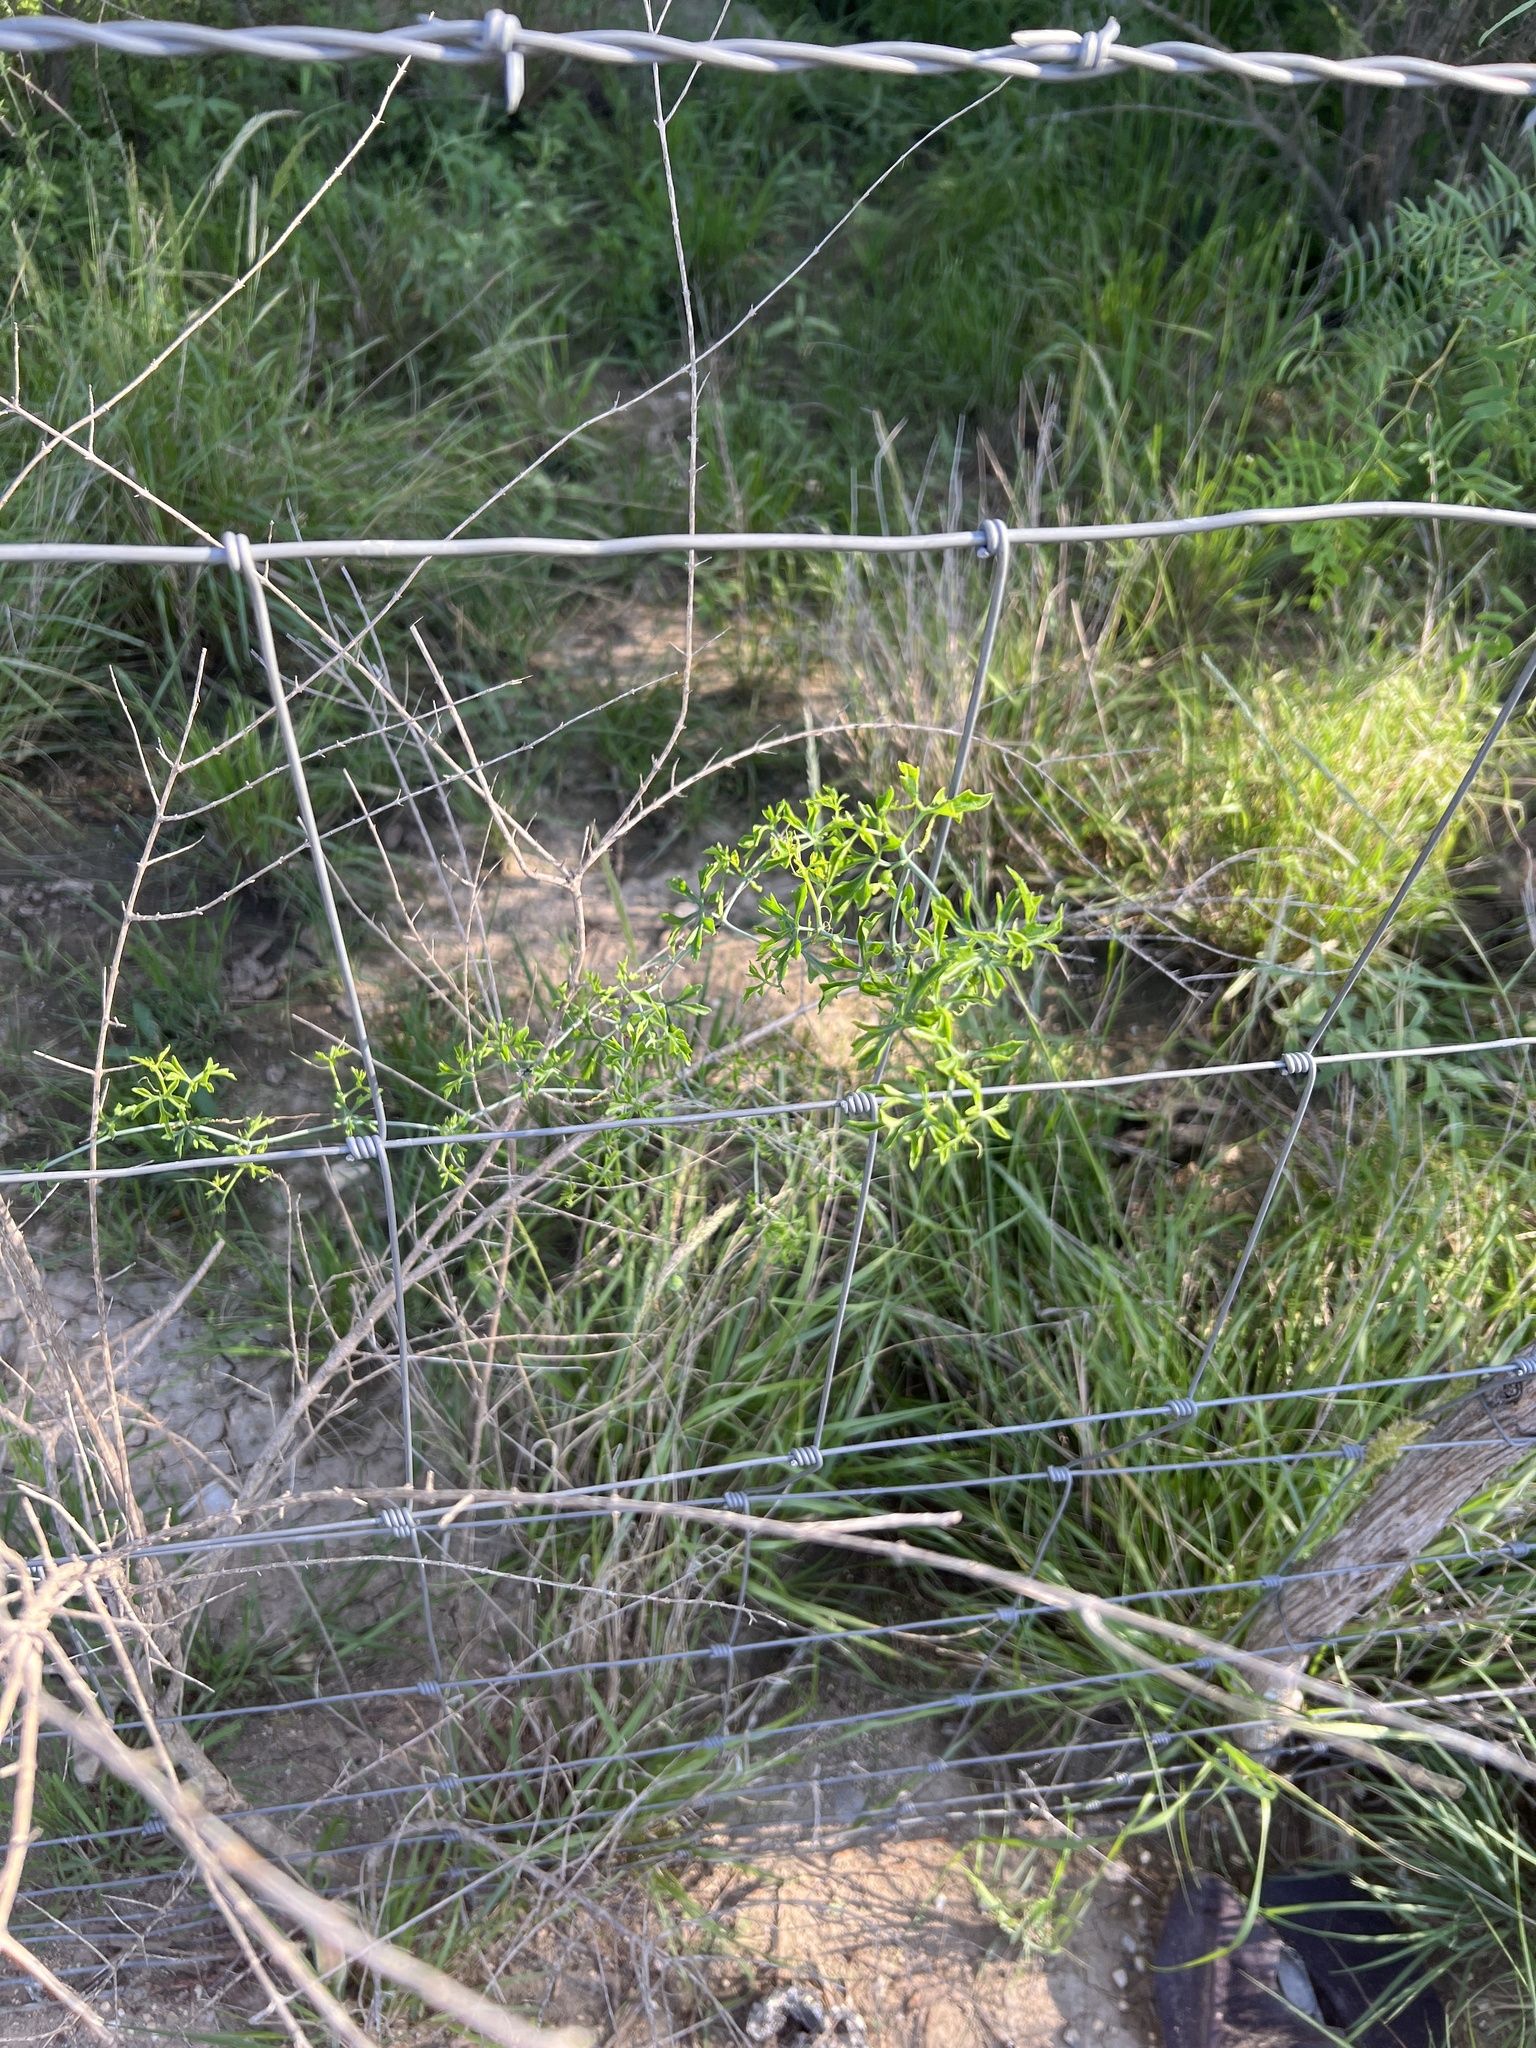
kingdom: Plantae
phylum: Tracheophyta
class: Magnoliopsida
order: Cucurbitales
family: Cucurbitaceae
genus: Ibervillea
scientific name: Ibervillea tenuisecta
